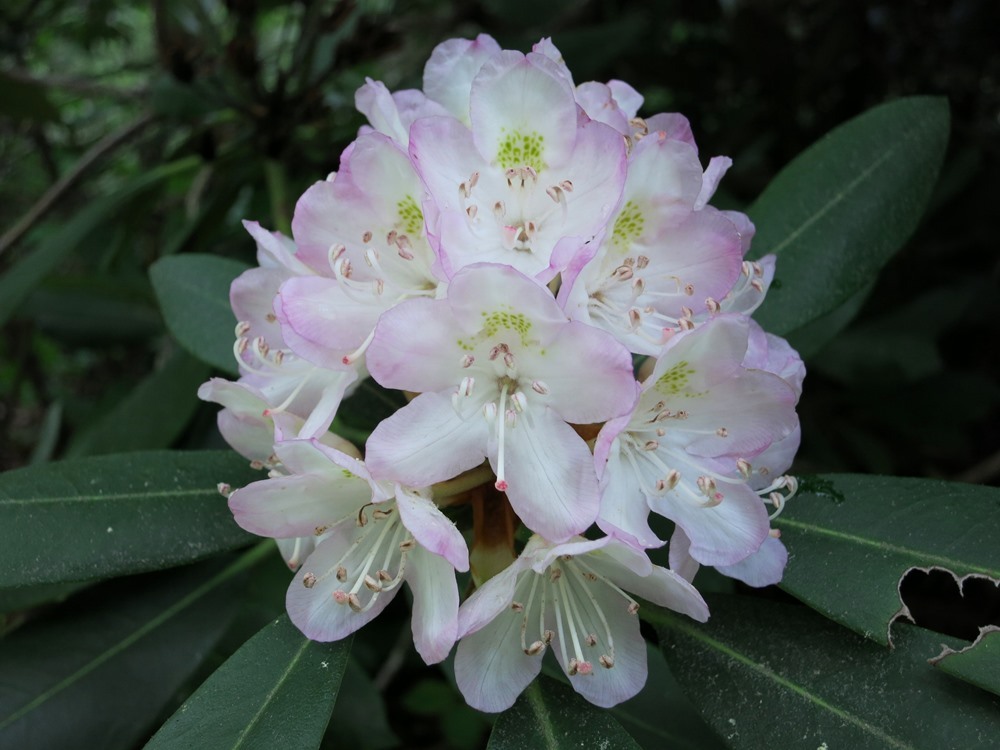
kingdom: Plantae
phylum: Tracheophyta
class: Magnoliopsida
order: Ericales
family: Ericaceae
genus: Rhododendron
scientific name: Rhododendron maximum
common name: Great rhododendron
